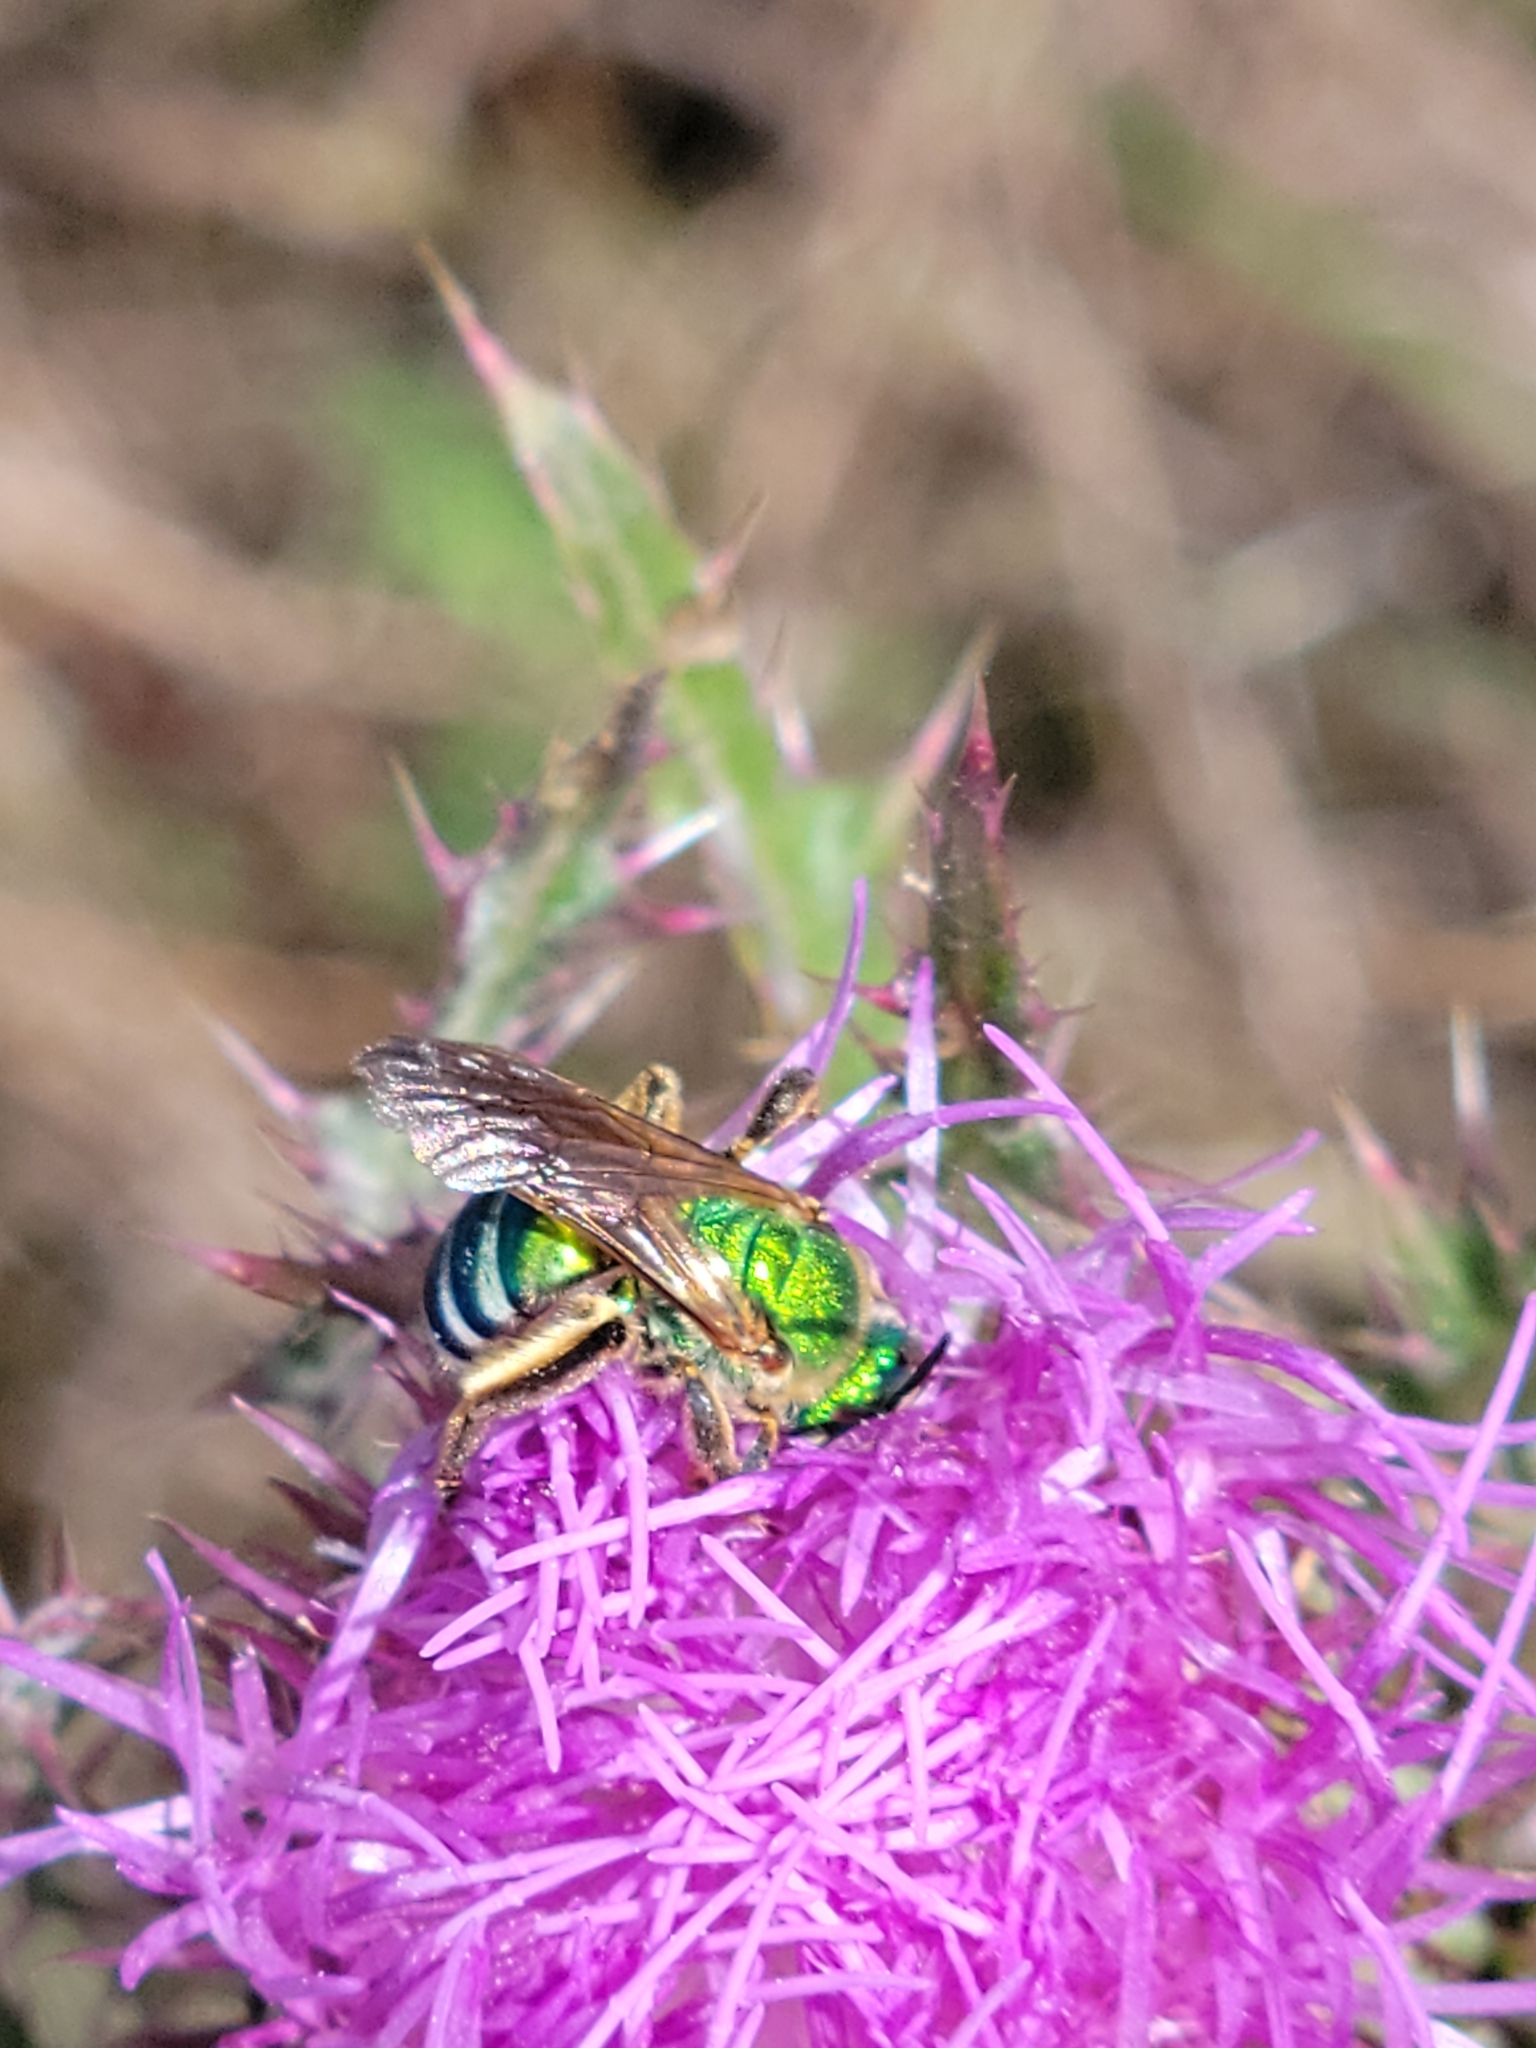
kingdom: Animalia
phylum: Arthropoda
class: Insecta
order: Hymenoptera
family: Halictidae
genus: Agapostemon
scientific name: Agapostemon splendens
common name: Brown-winged striped sweat bee
